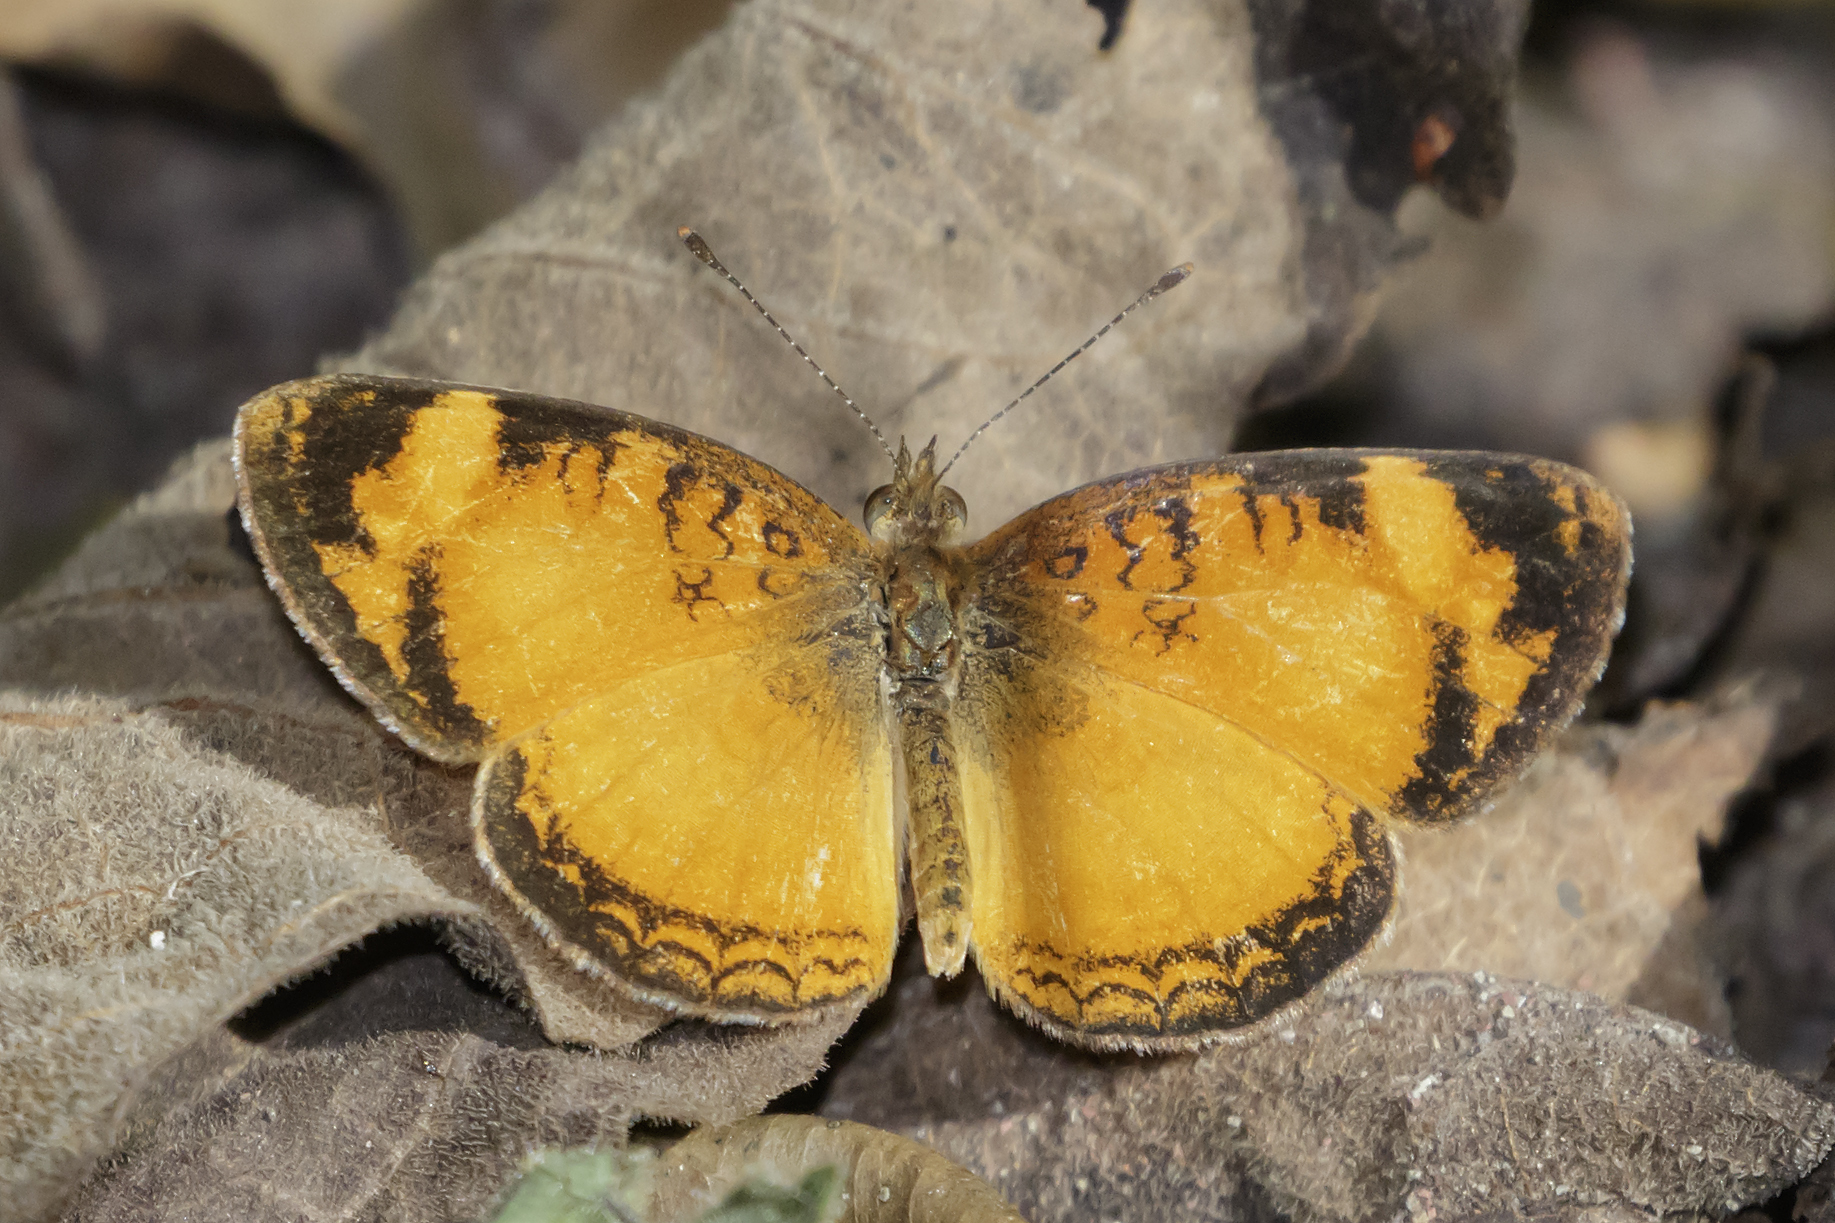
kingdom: Animalia
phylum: Arthropoda
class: Insecta
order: Lepidoptera
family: Nymphalidae
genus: Ortilia
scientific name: Ortilia gentina
